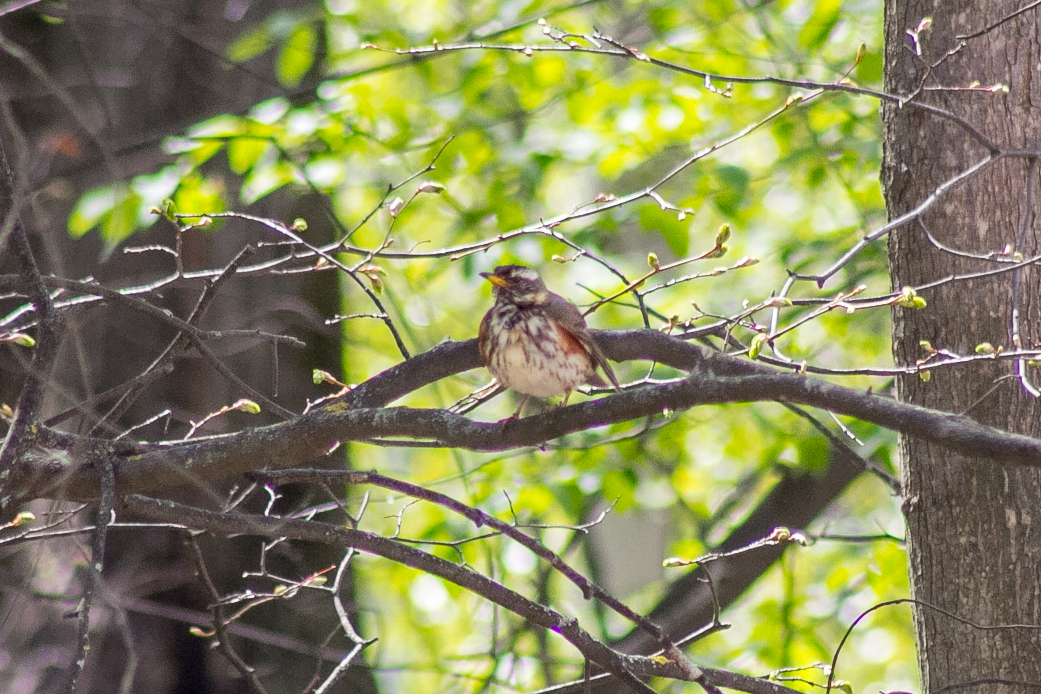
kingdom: Animalia
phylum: Chordata
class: Aves
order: Passeriformes
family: Turdidae
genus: Turdus
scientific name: Turdus iliacus
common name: Redwing
